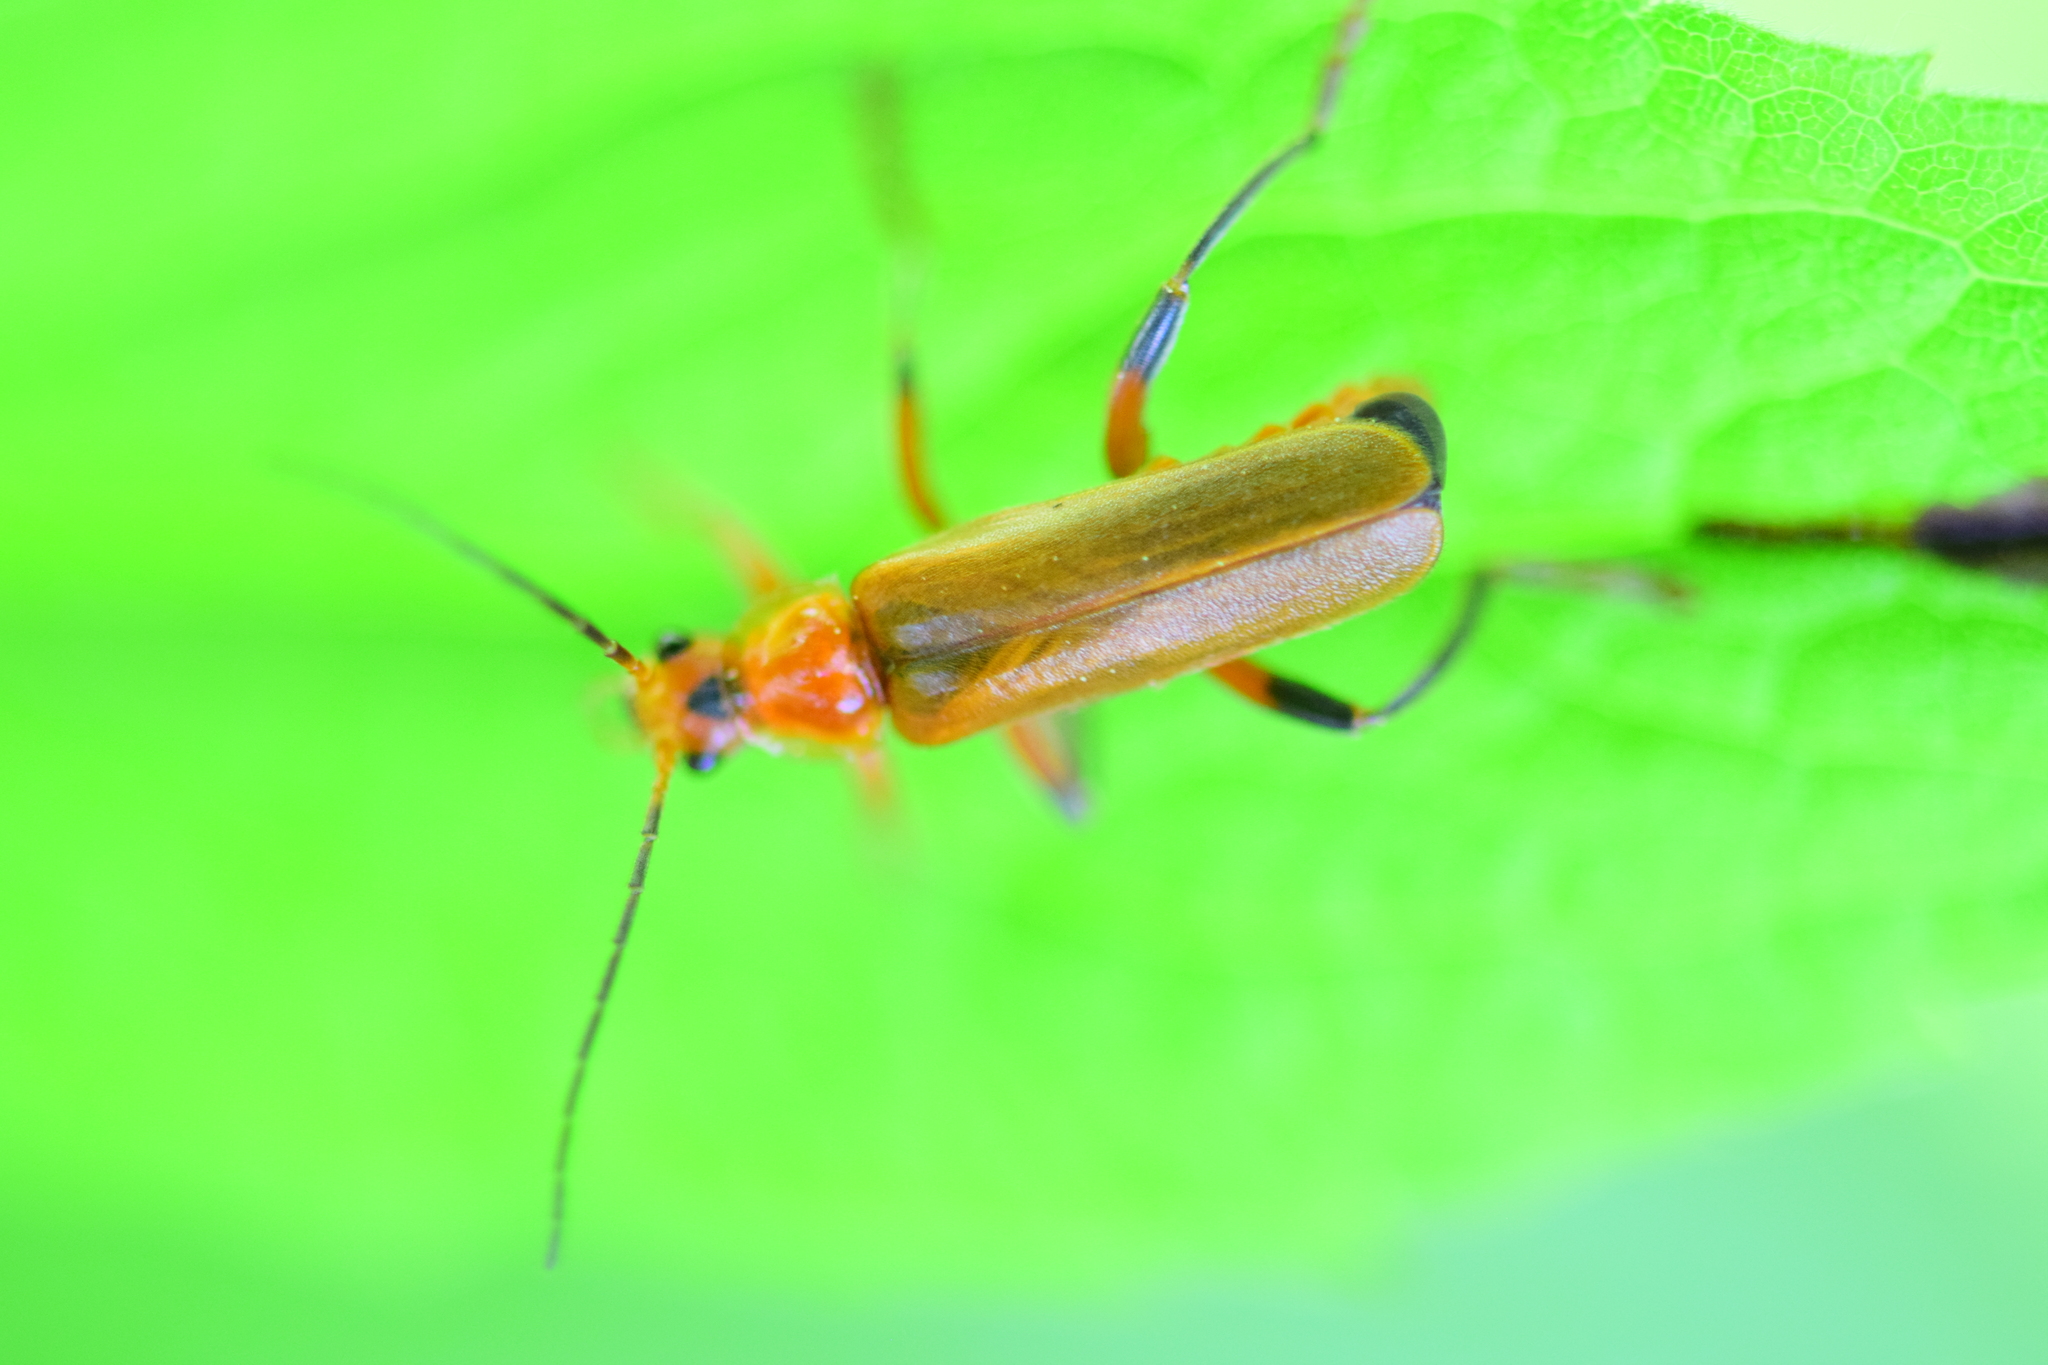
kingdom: Animalia
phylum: Arthropoda
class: Insecta
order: Coleoptera
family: Cantharidae
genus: Cantharis
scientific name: Cantharis livida
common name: Livid soldier beetle
